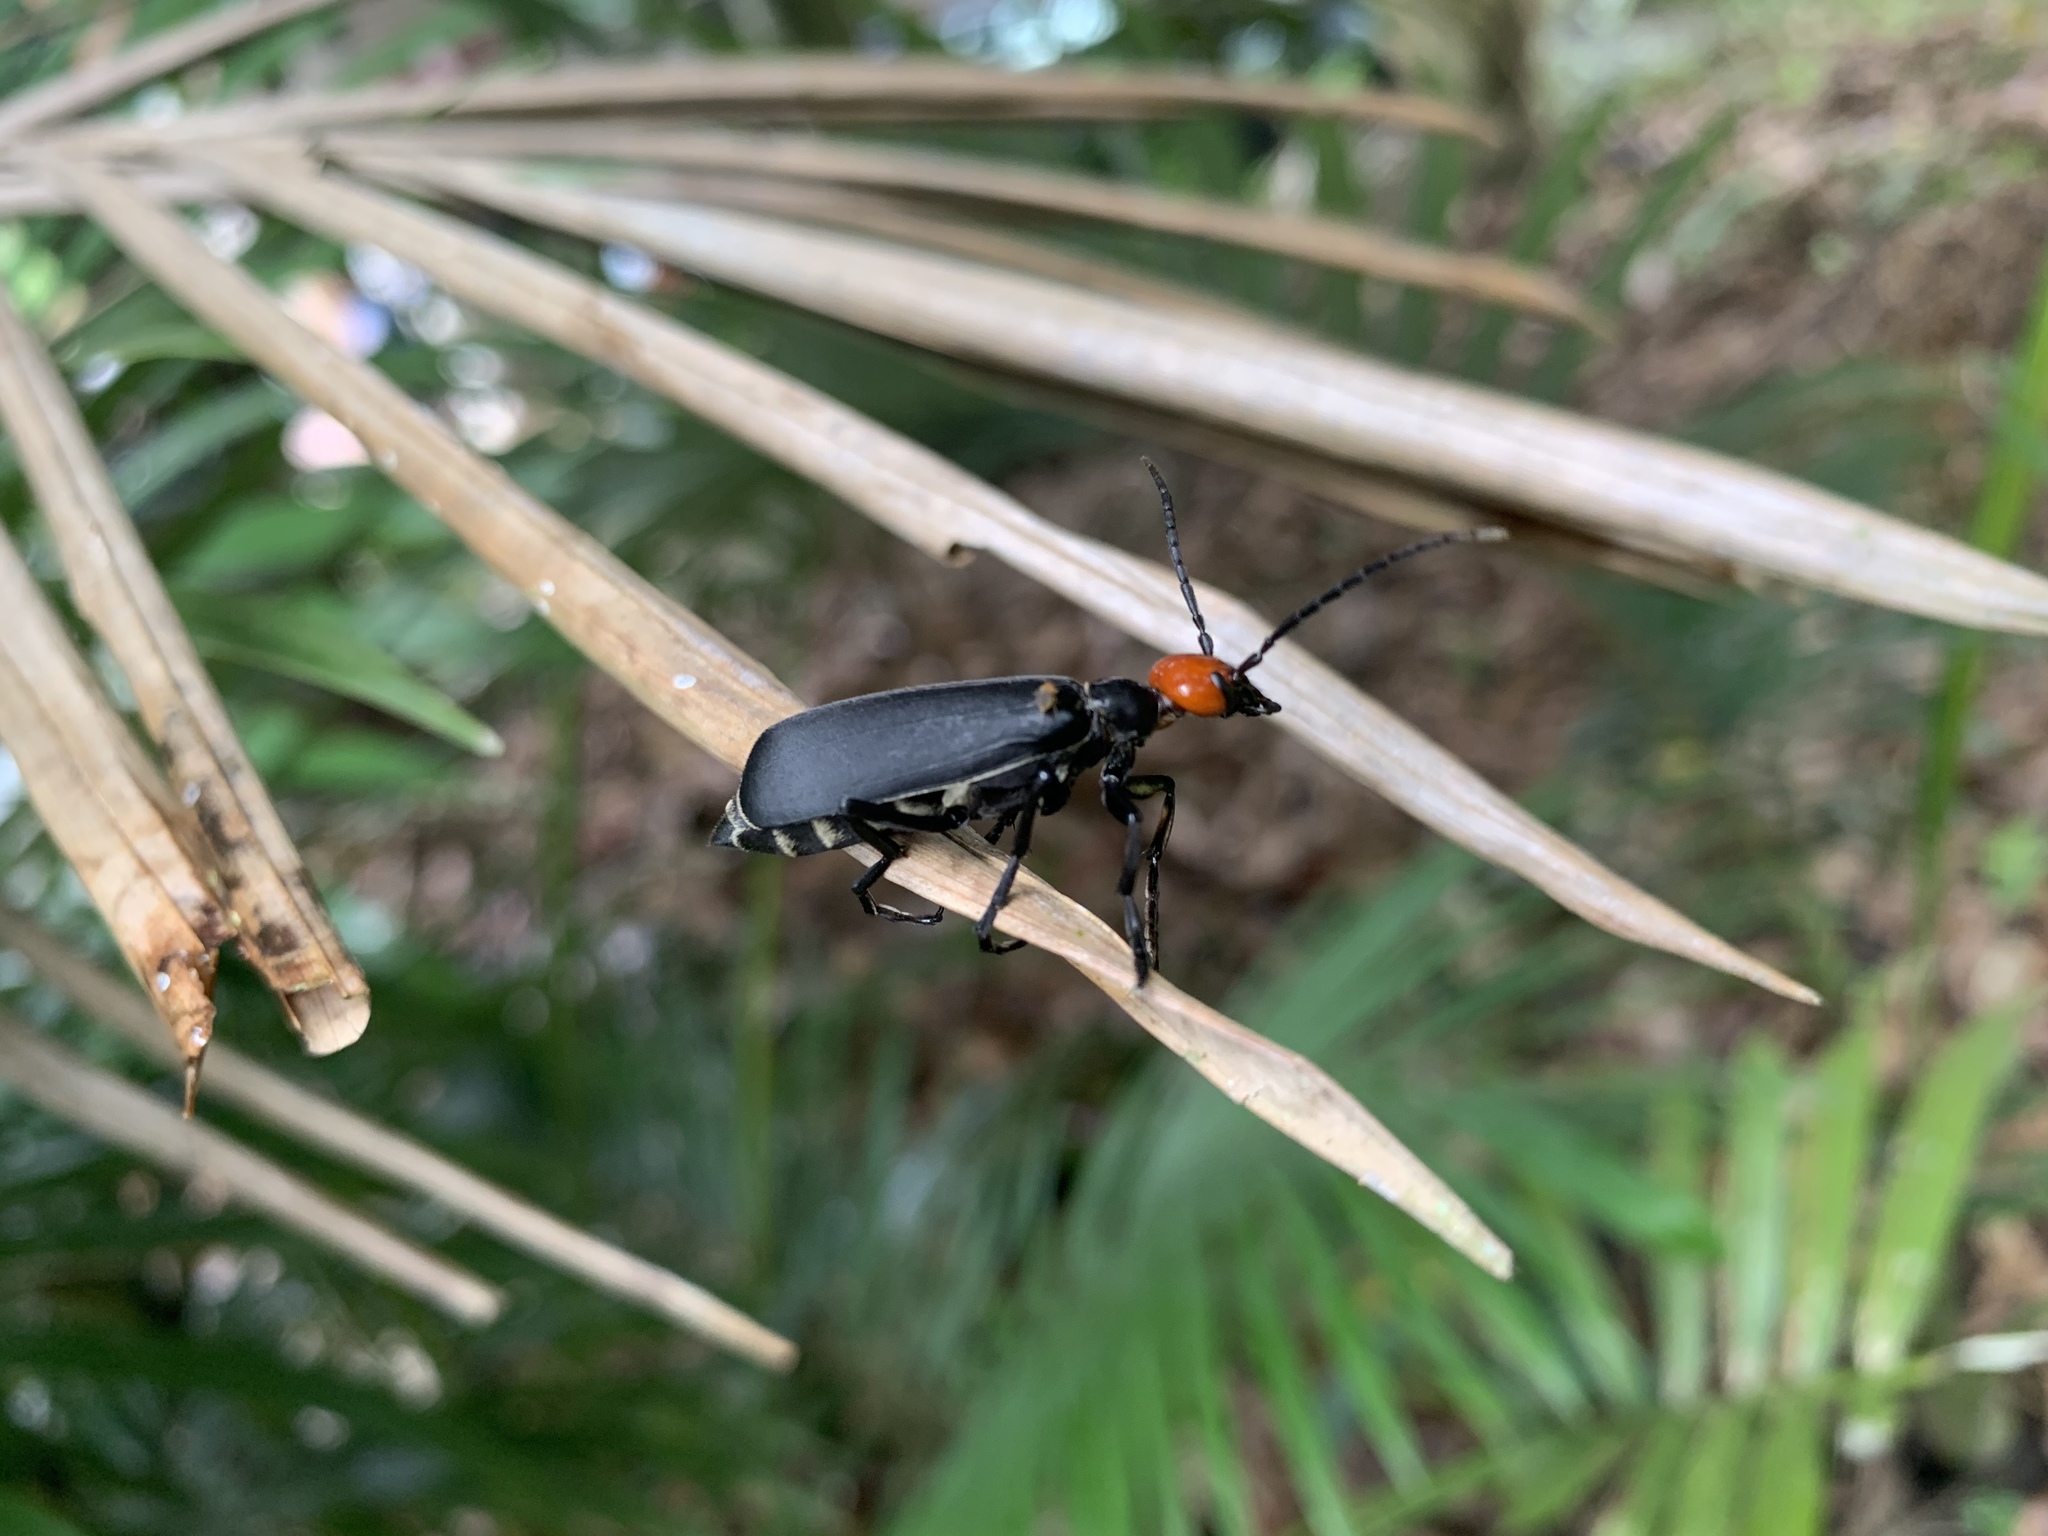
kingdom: Animalia
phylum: Arthropoda
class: Insecta
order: Coleoptera
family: Meloidae
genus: Epicauta
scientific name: Epicauta hirticornis
